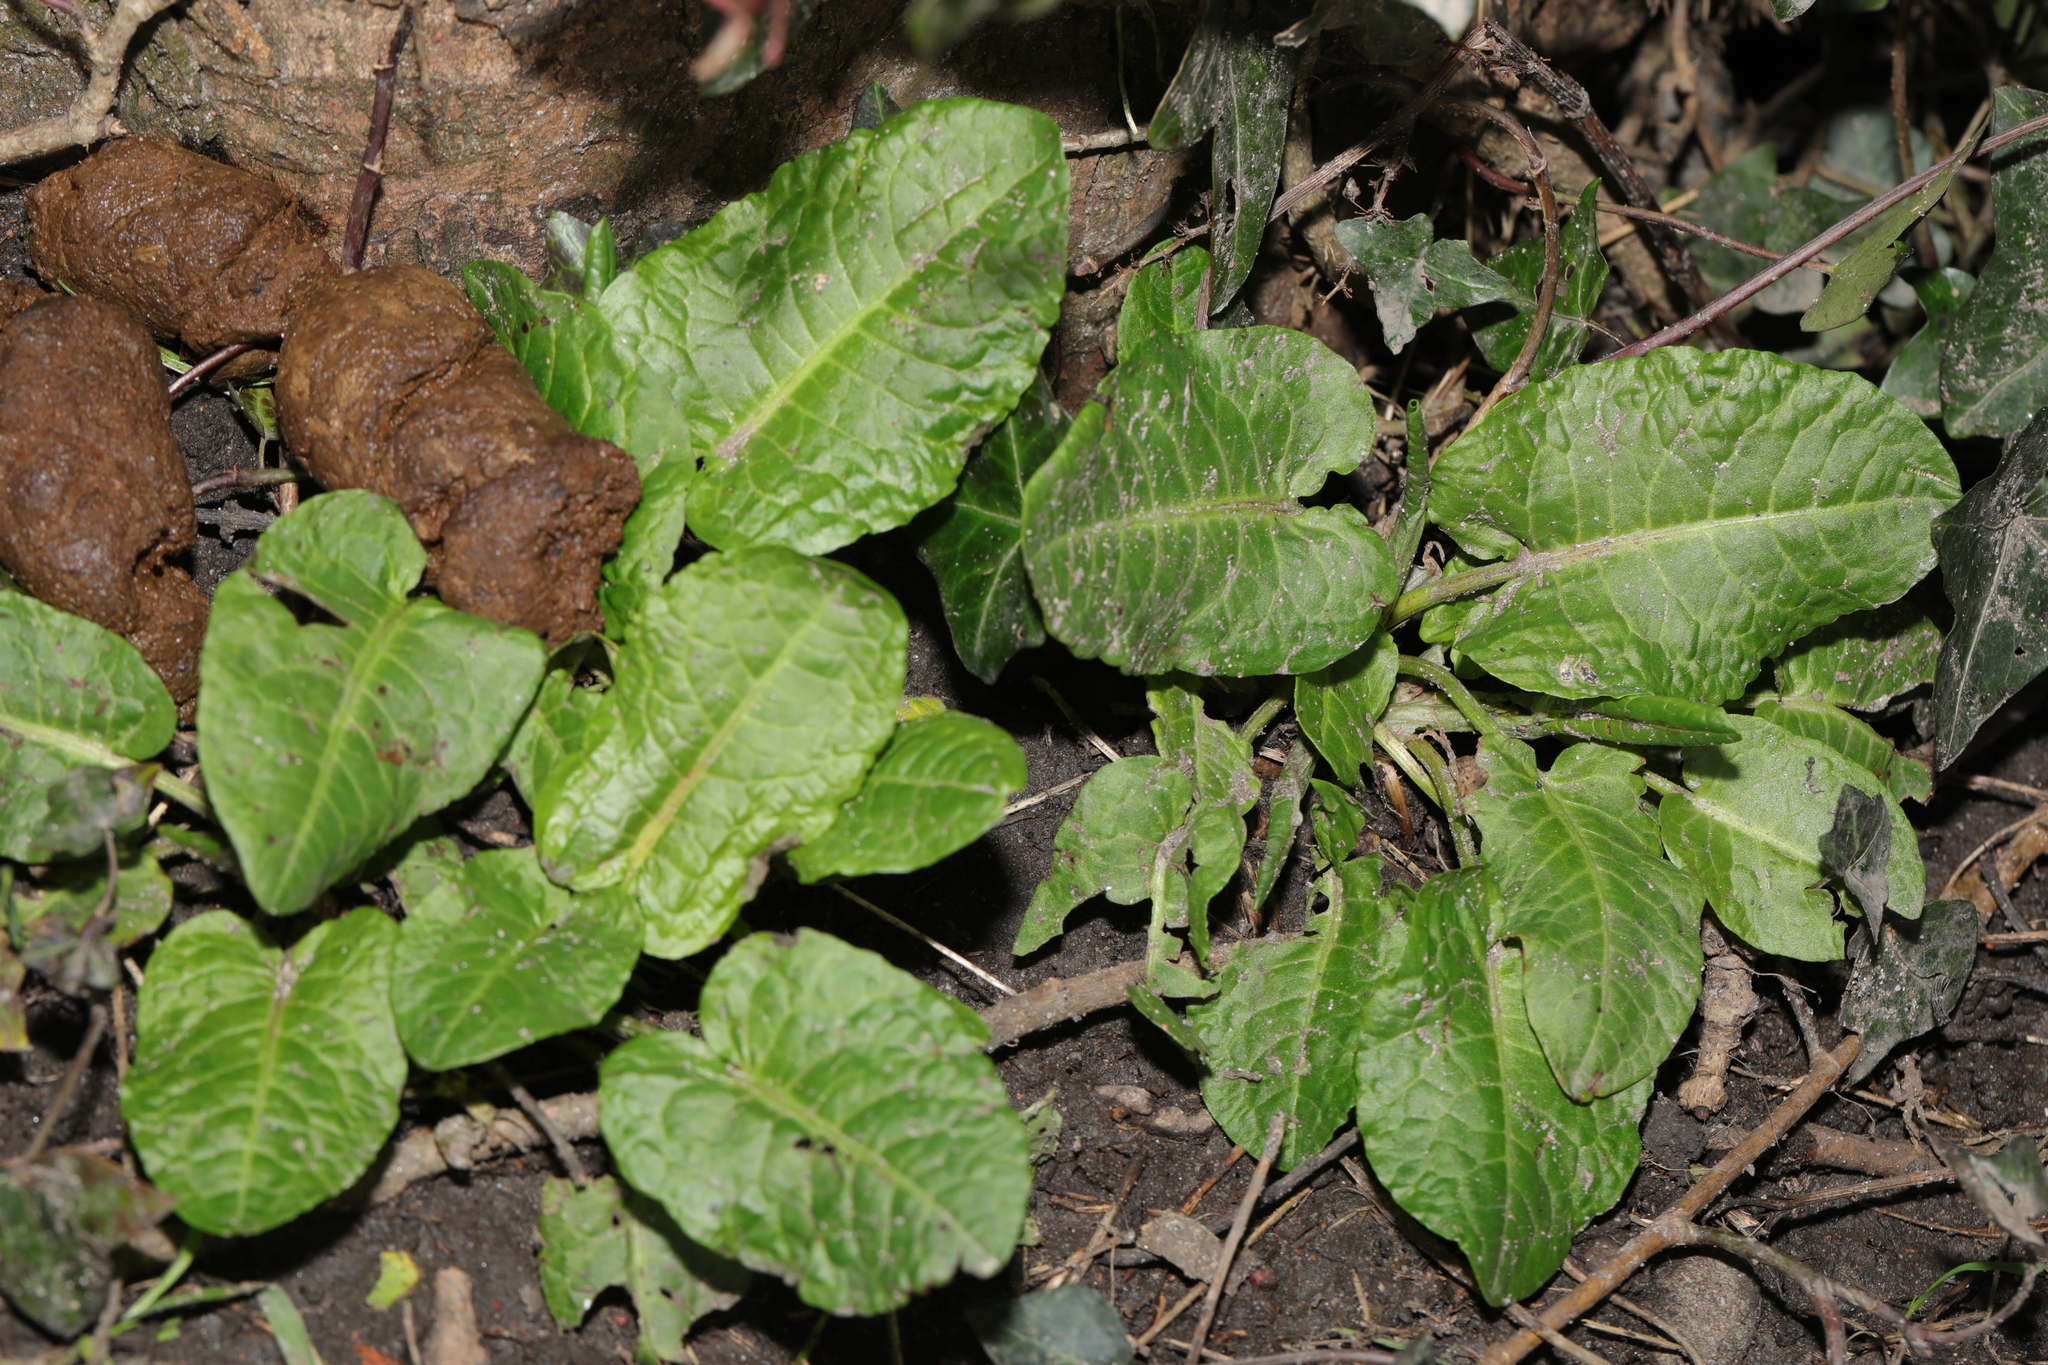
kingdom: Plantae
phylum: Tracheophyta
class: Magnoliopsida
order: Caryophyllales
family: Polygonaceae
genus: Rumex
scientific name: Rumex obtusifolius
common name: Bitter dock
